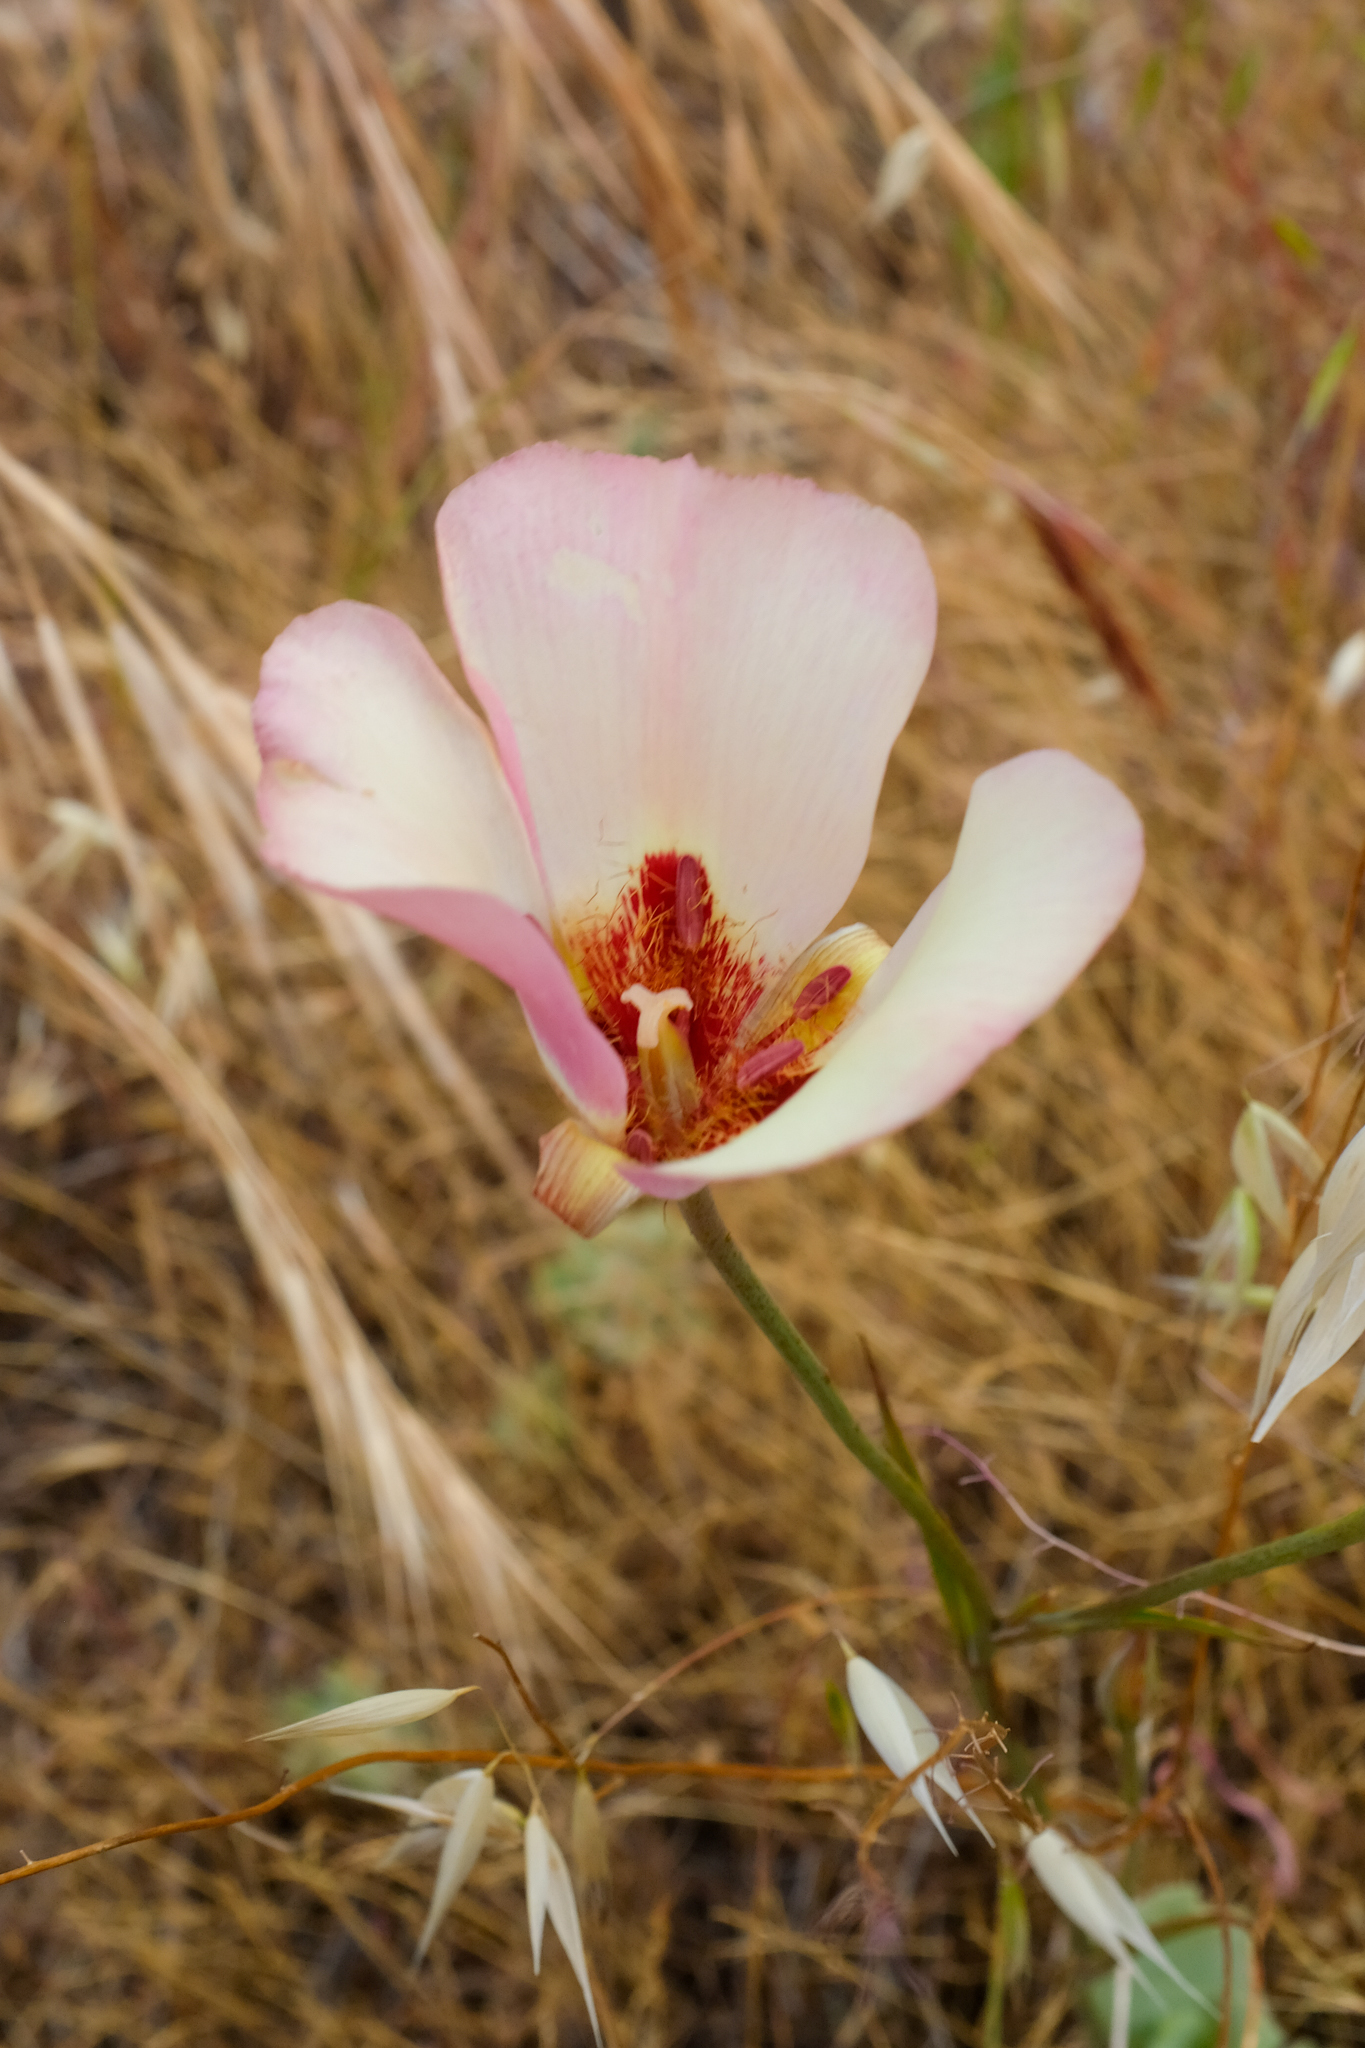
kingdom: Plantae
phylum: Tracheophyta
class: Liliopsida
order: Liliales
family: Liliaceae
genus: Calochortus
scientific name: Calochortus simulans
